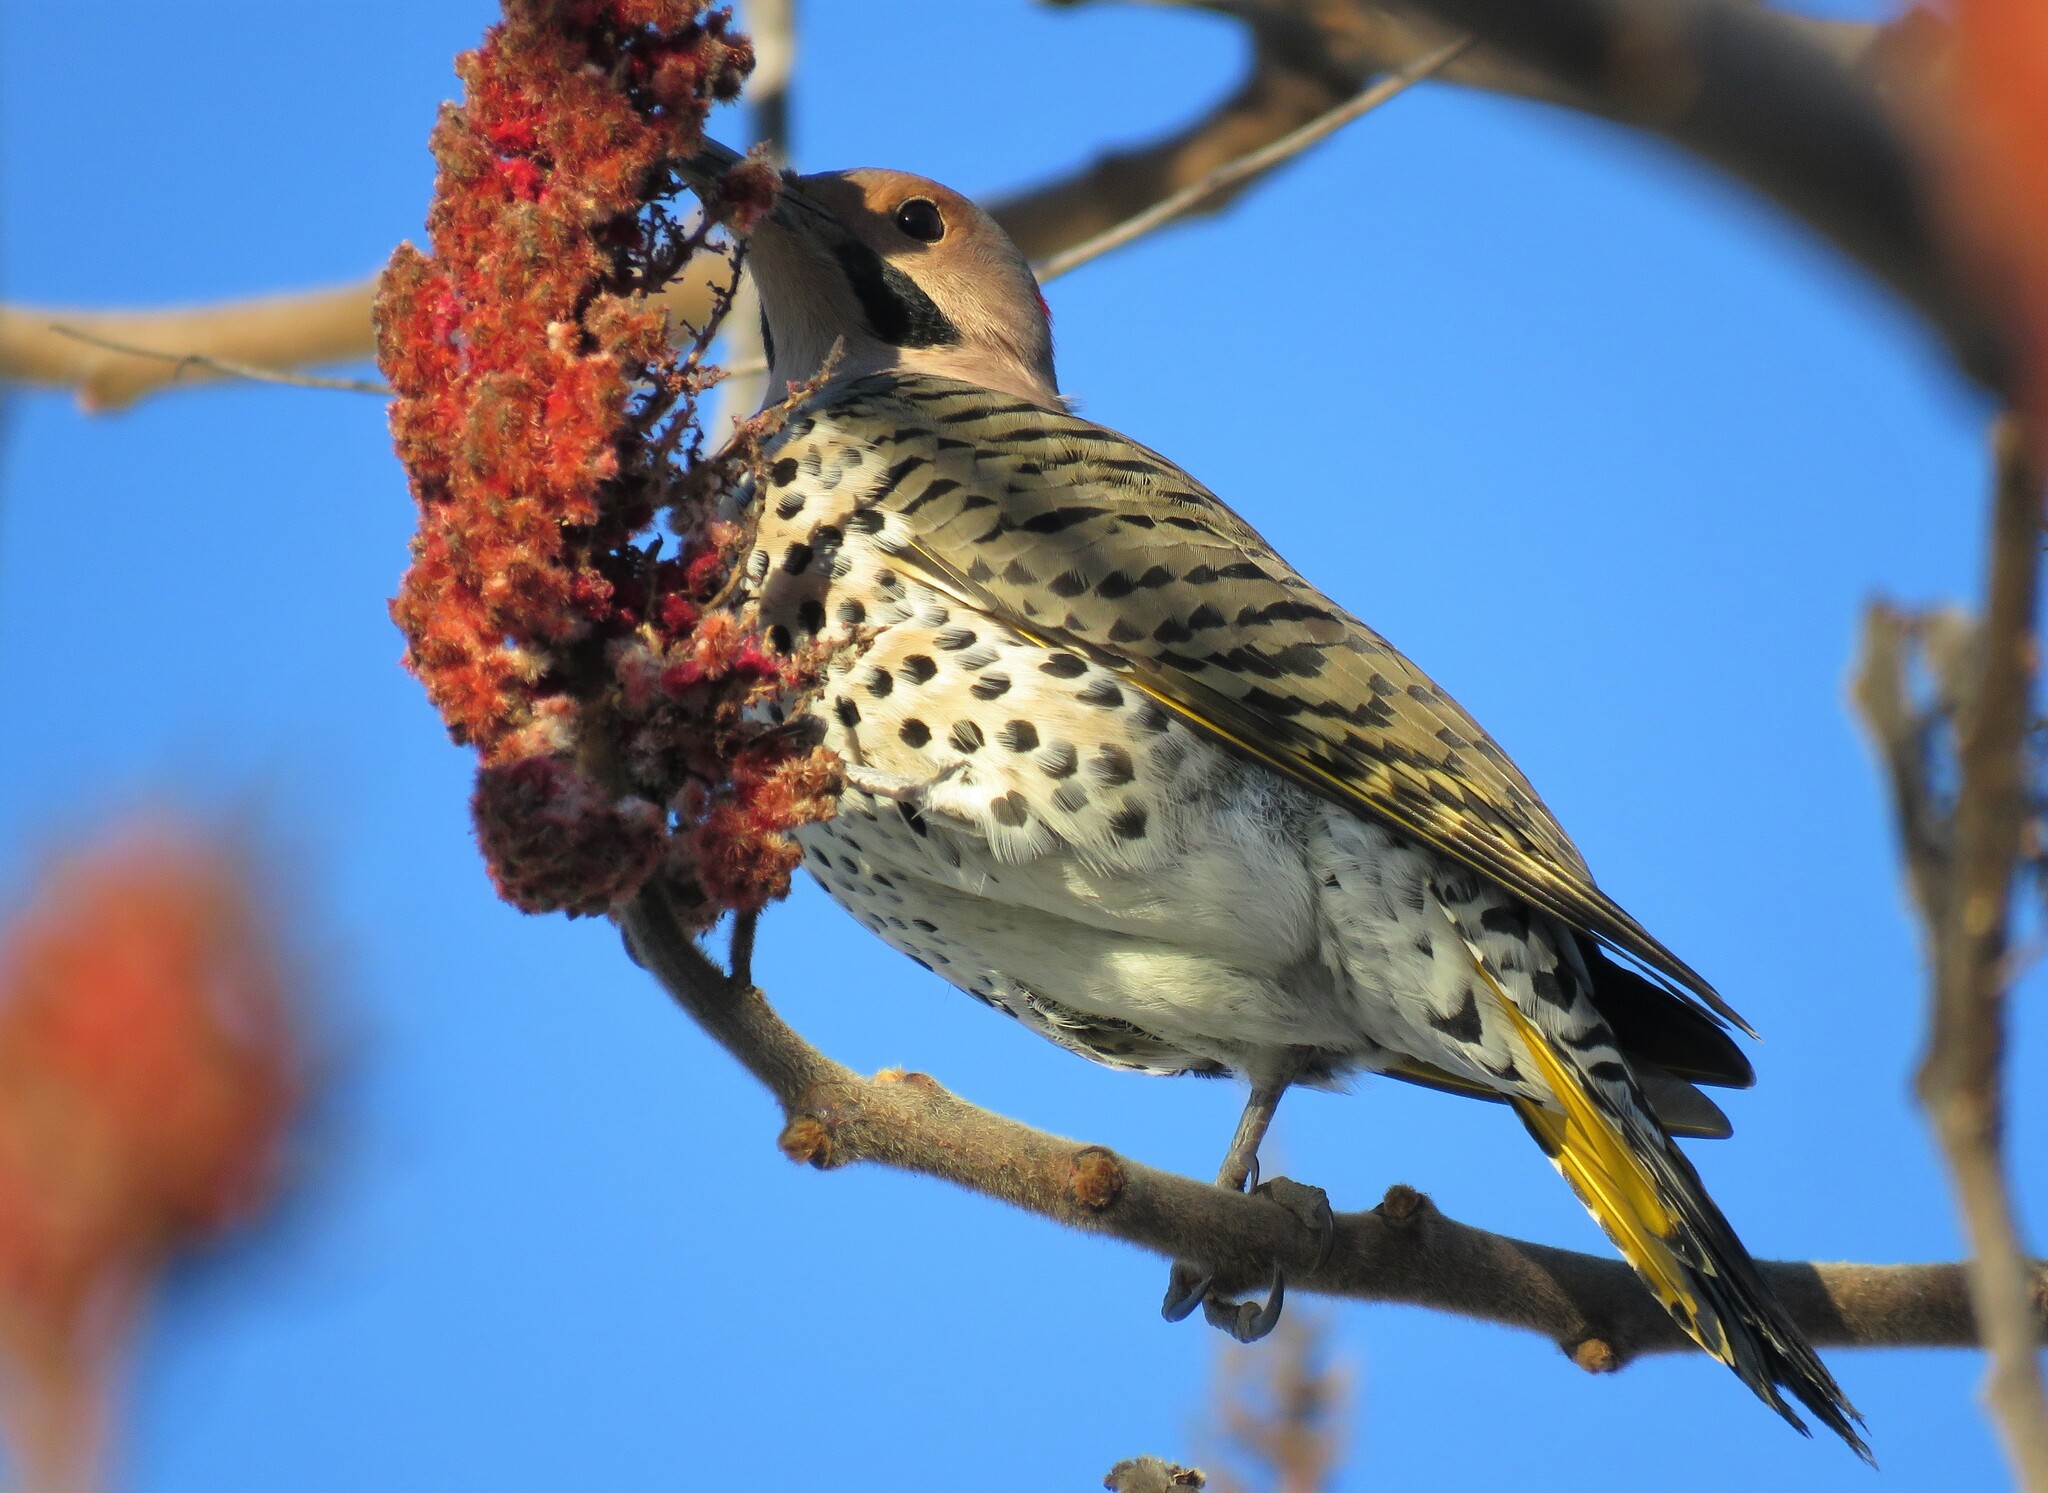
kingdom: Animalia
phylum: Chordata
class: Aves
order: Piciformes
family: Picidae
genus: Colaptes
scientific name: Colaptes auratus
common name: Northern flicker
